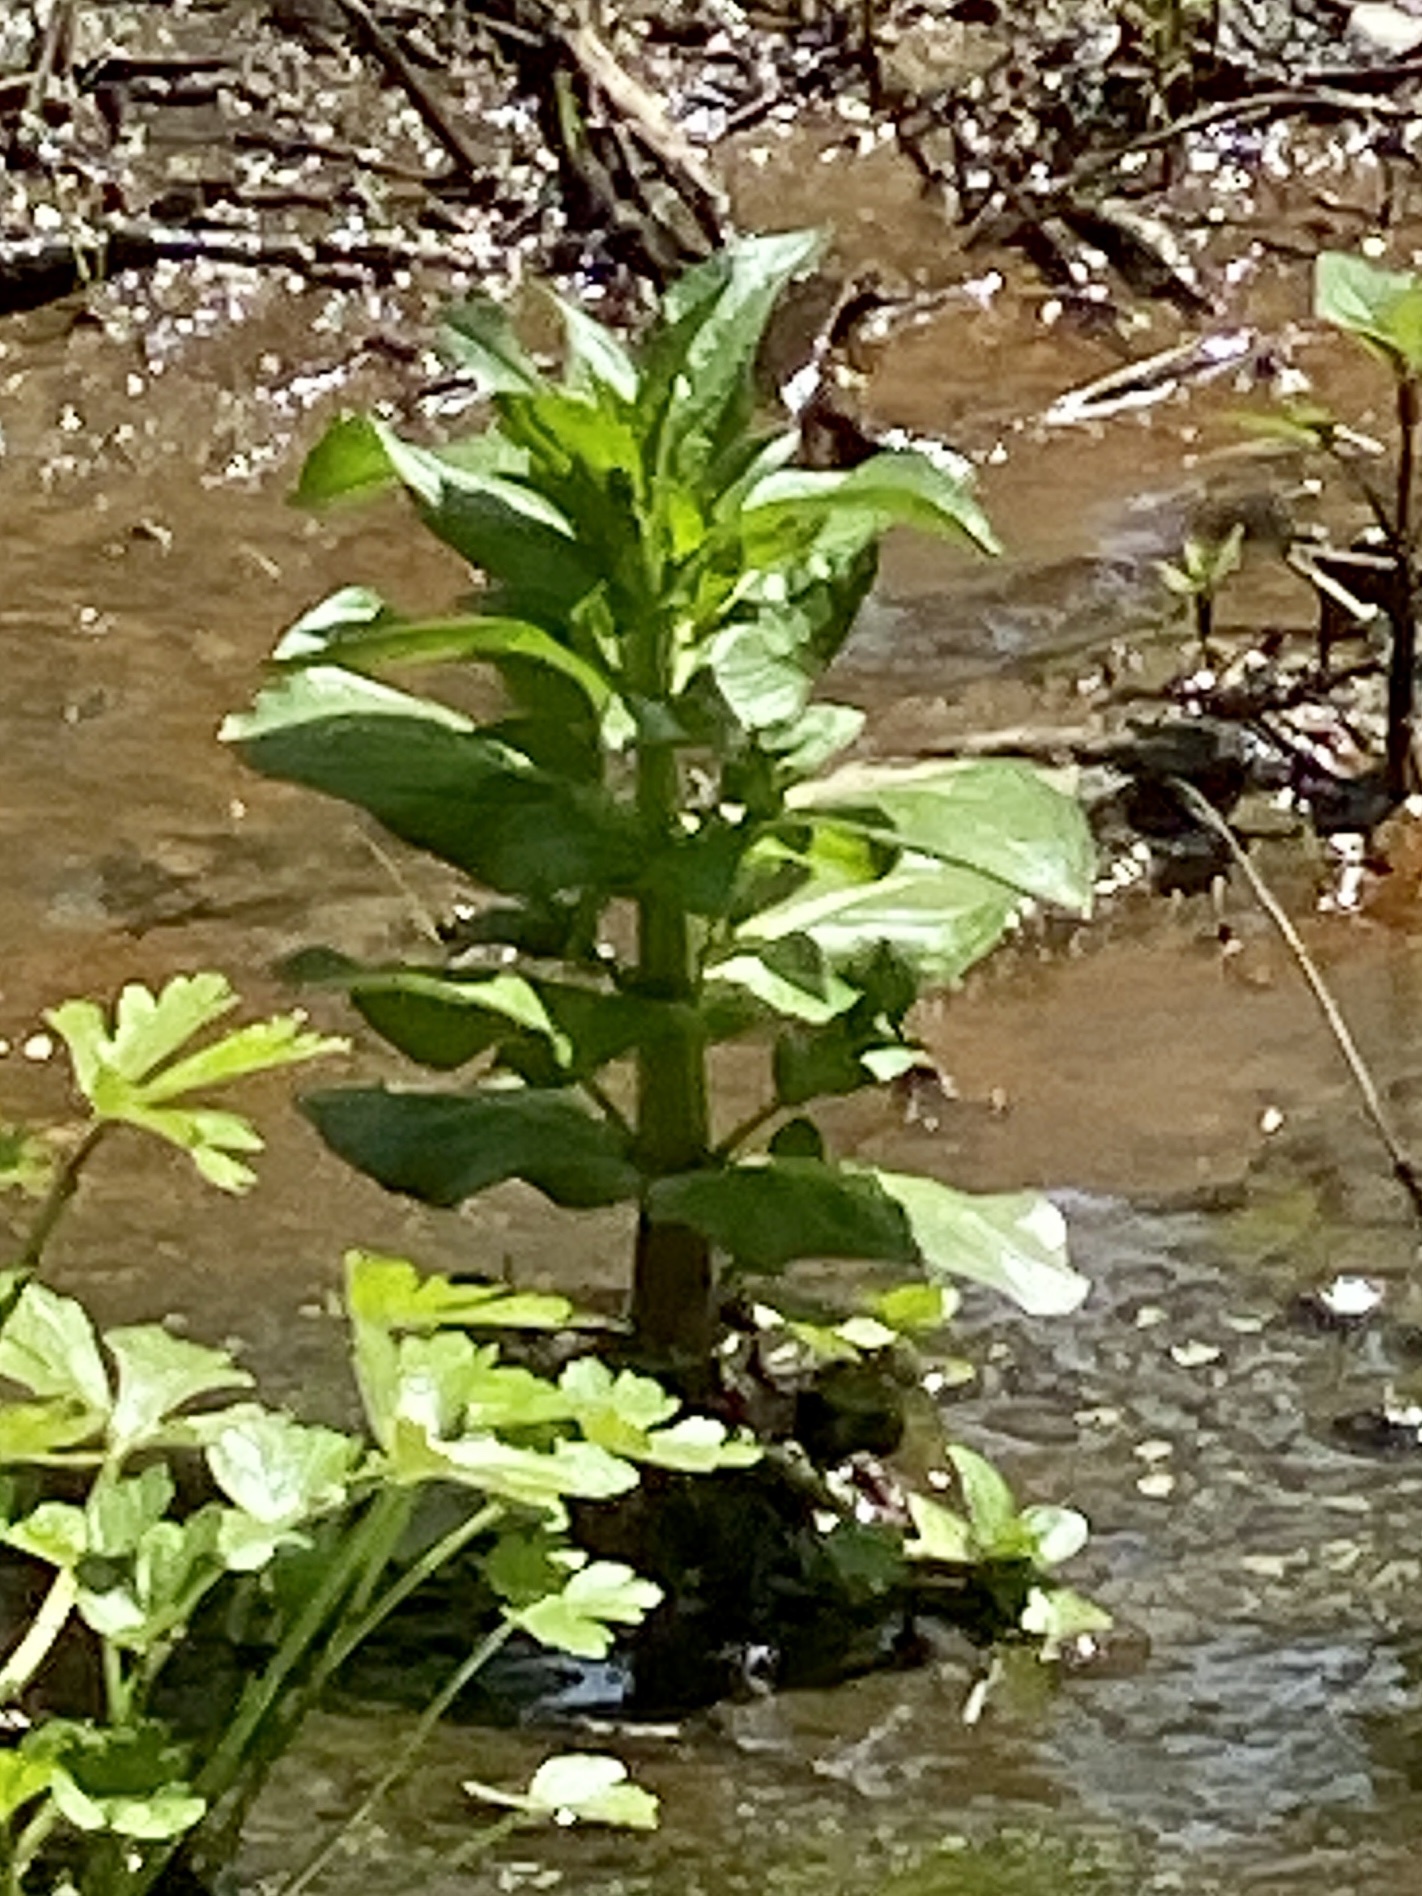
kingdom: Plantae
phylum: Tracheophyta
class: Magnoliopsida
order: Lamiales
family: Plantaginaceae
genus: Veronica
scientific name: Veronica anagallis-aquatica
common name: Water speedwell
